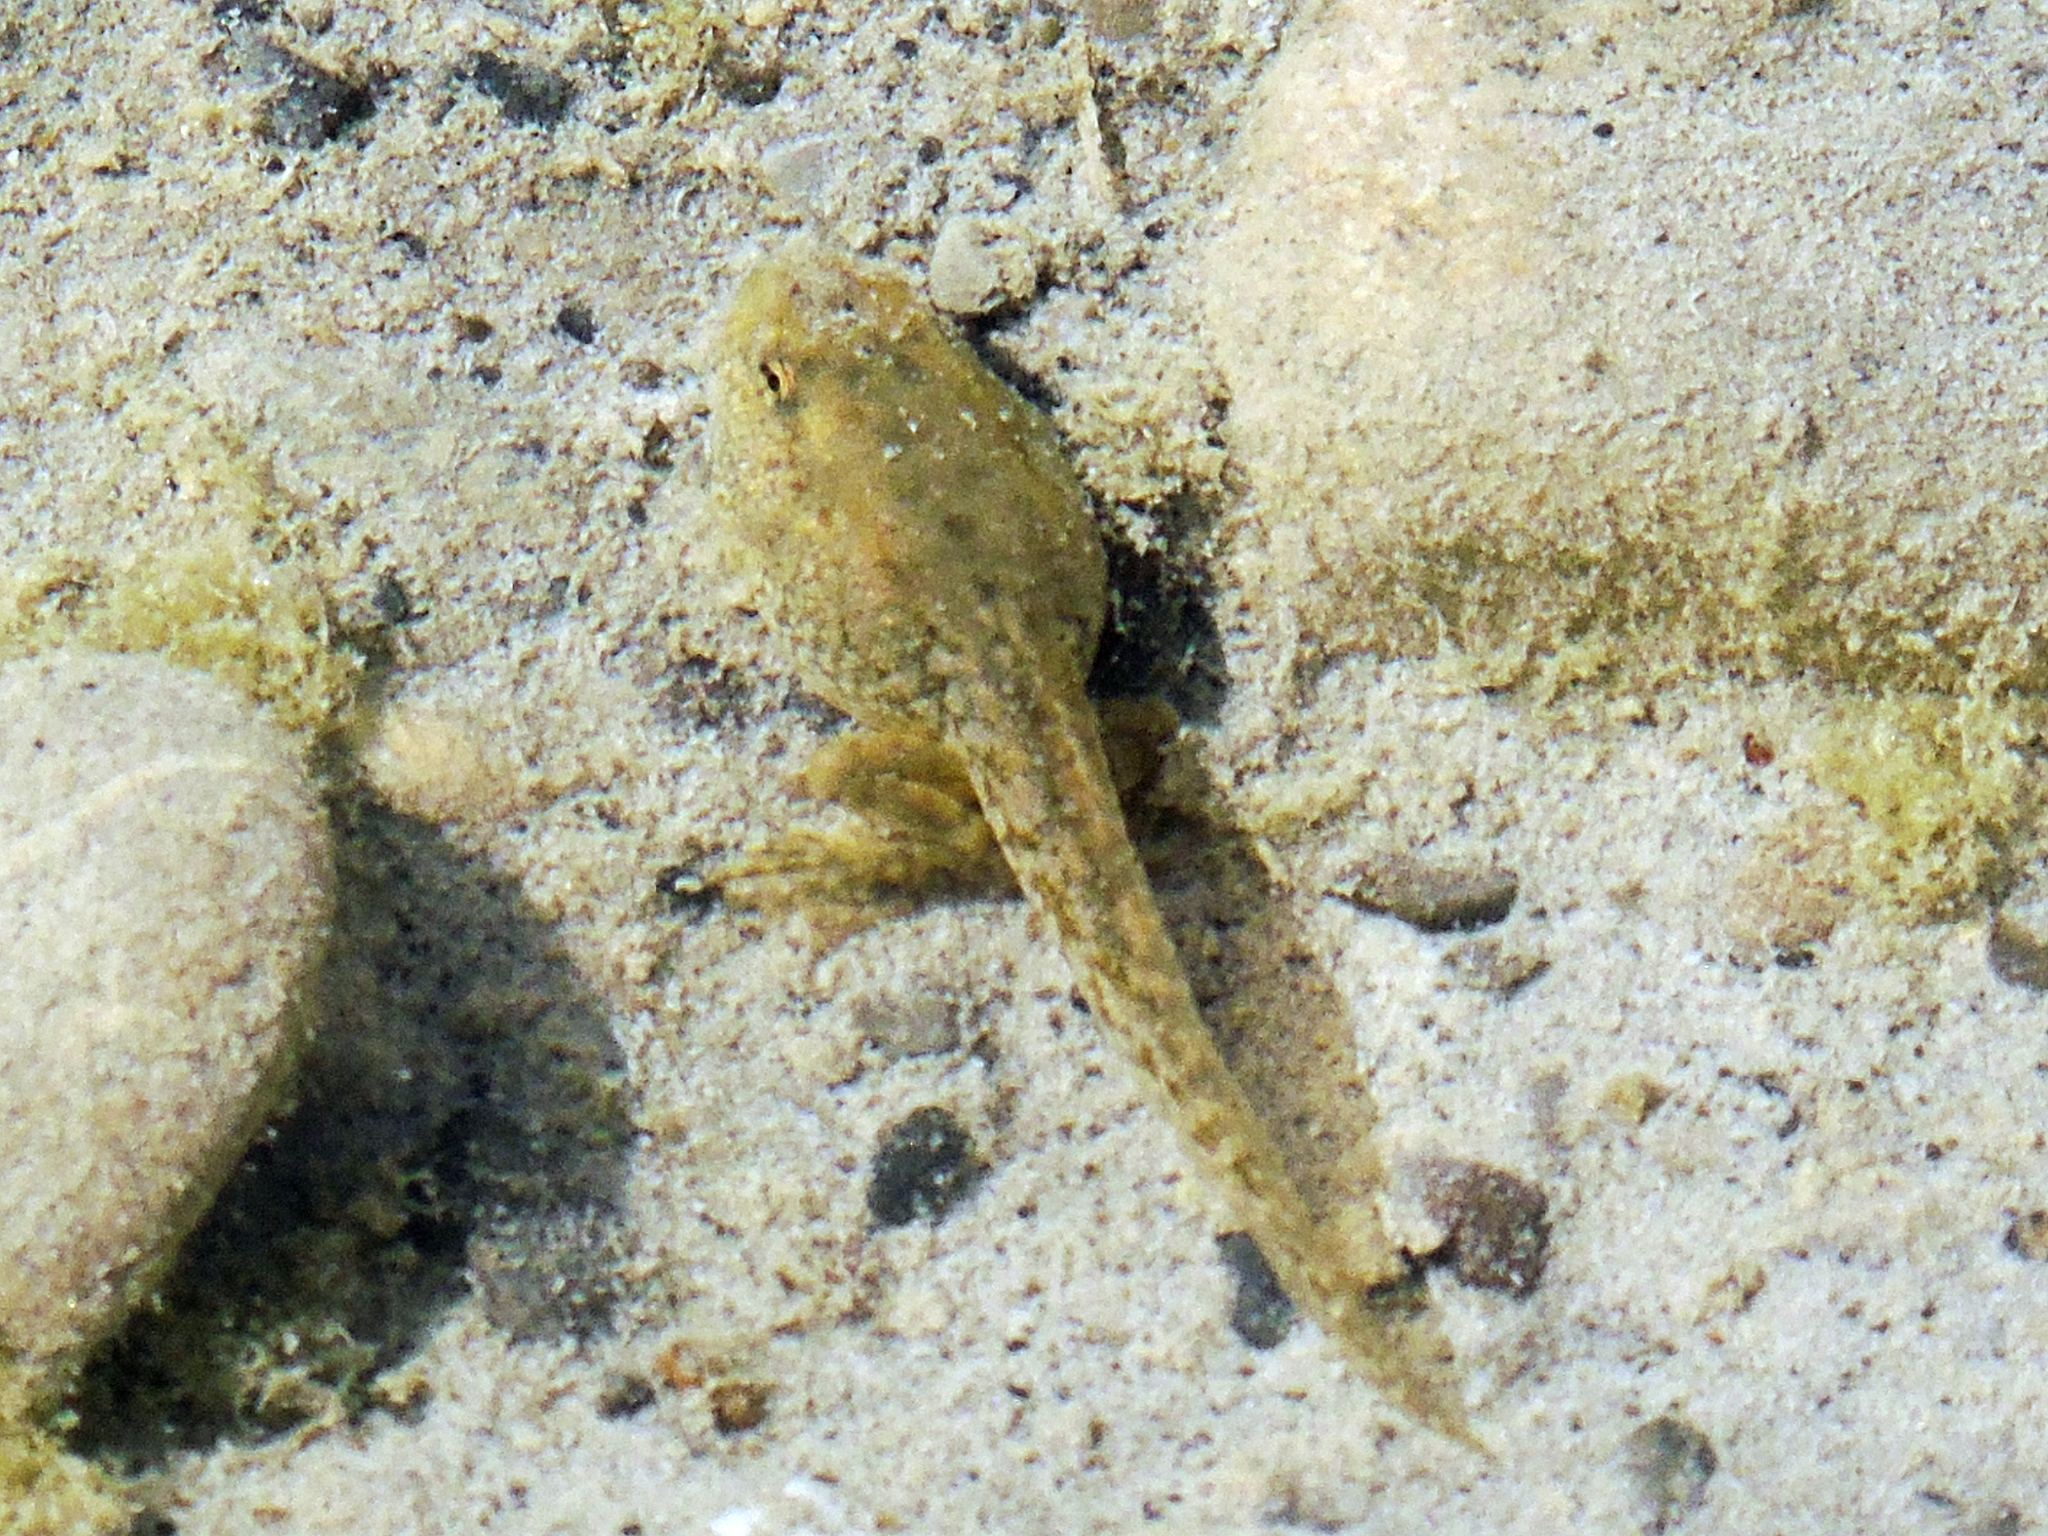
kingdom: Animalia
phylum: Chordata
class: Amphibia
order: Anura
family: Ranidae
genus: Pelophylax
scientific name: Pelophylax ridibundus
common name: Marsh frog
